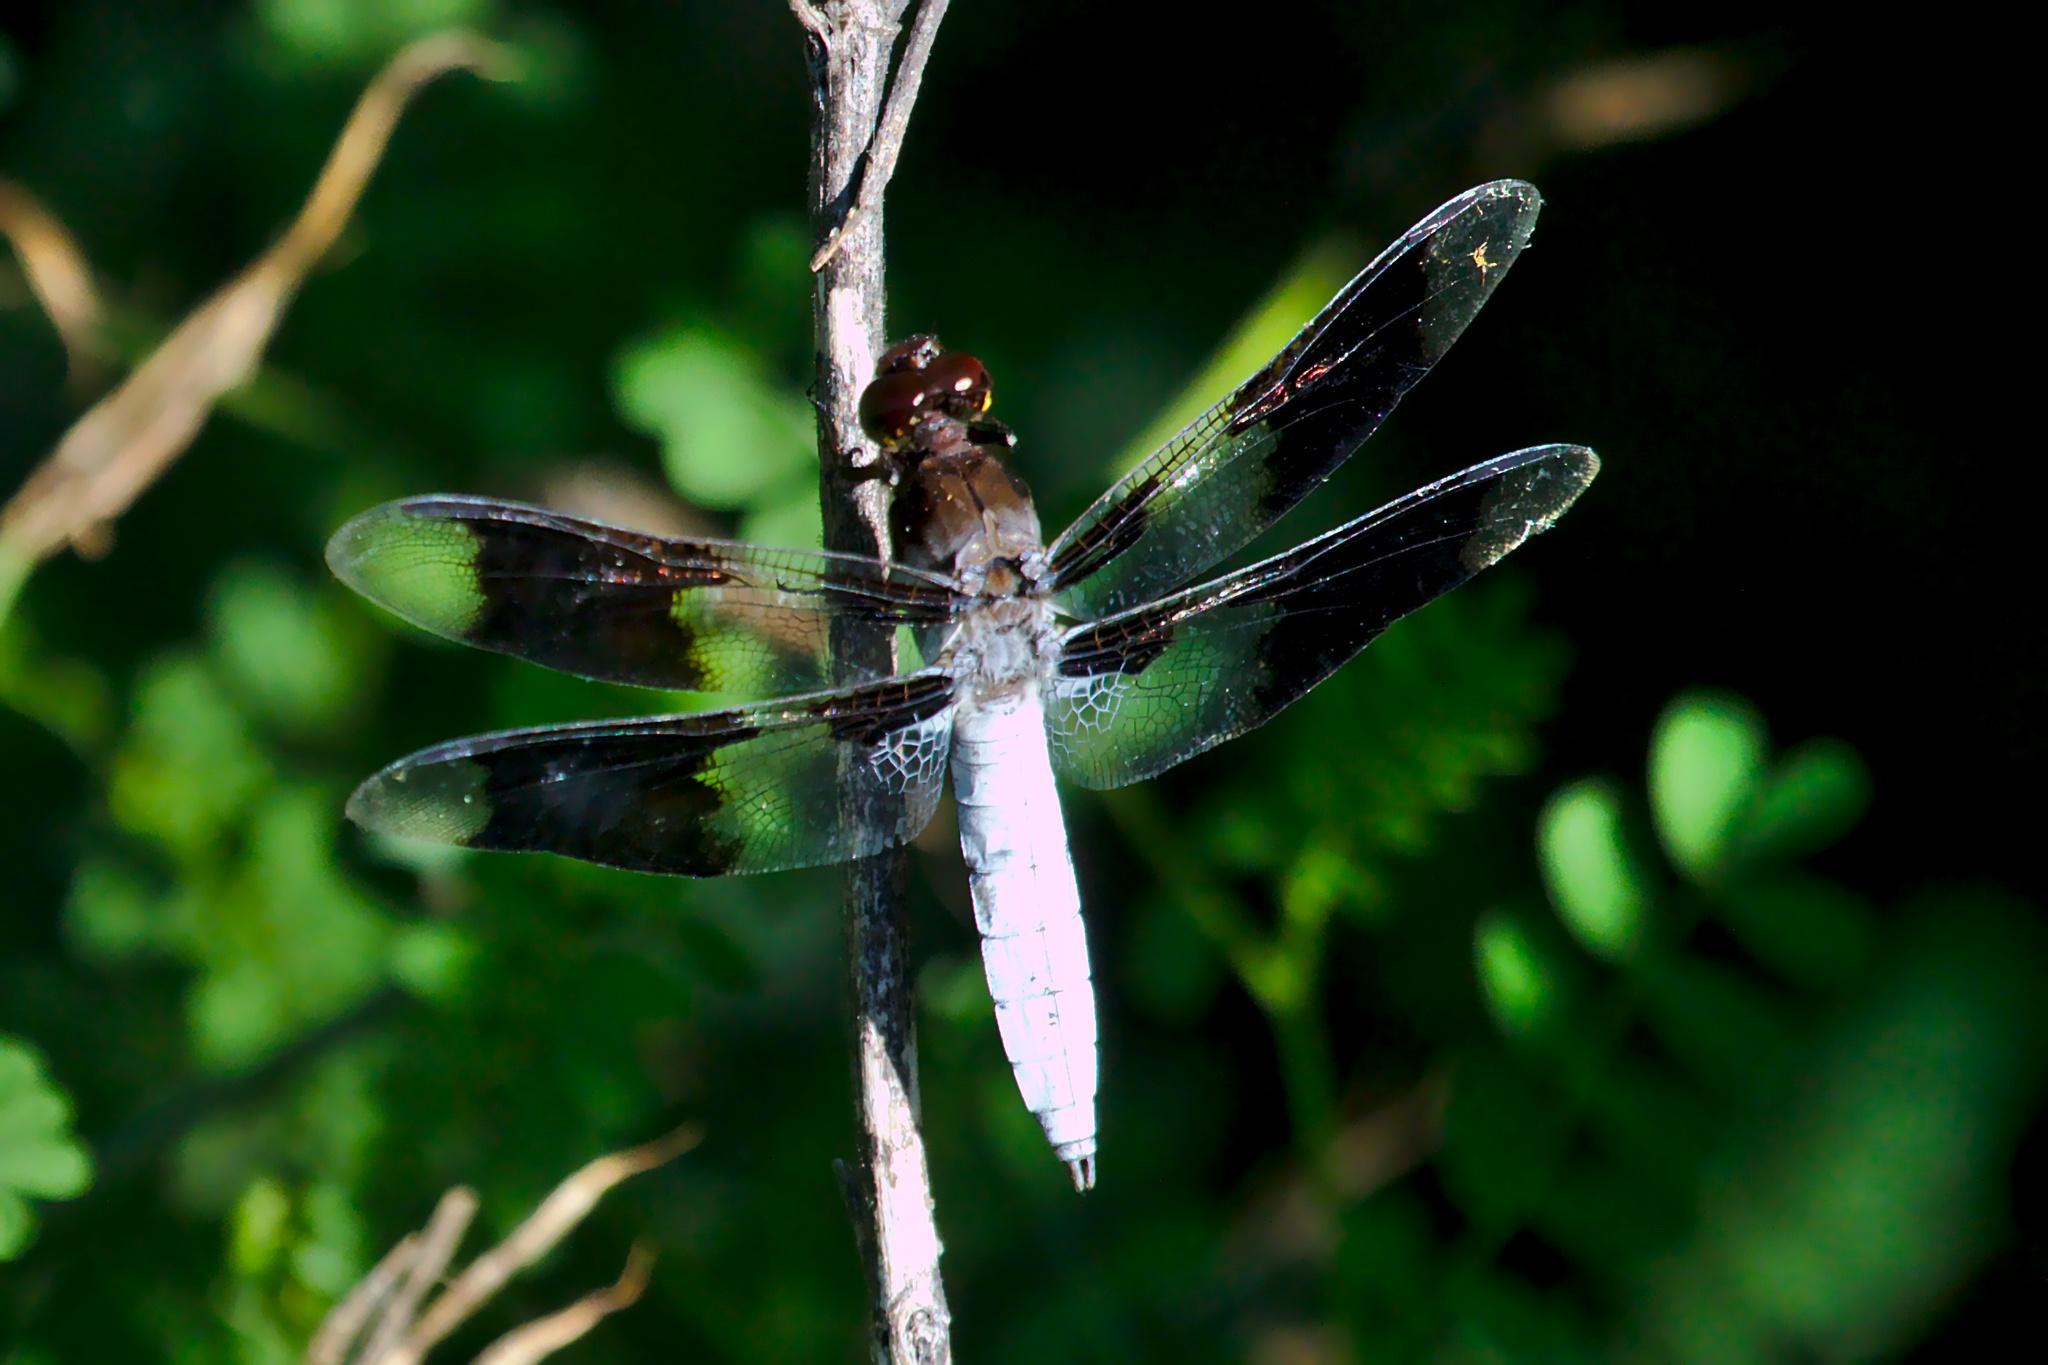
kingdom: Animalia
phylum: Arthropoda
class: Insecta
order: Odonata
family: Libellulidae
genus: Plathemis
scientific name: Plathemis lydia
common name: Common whitetail
